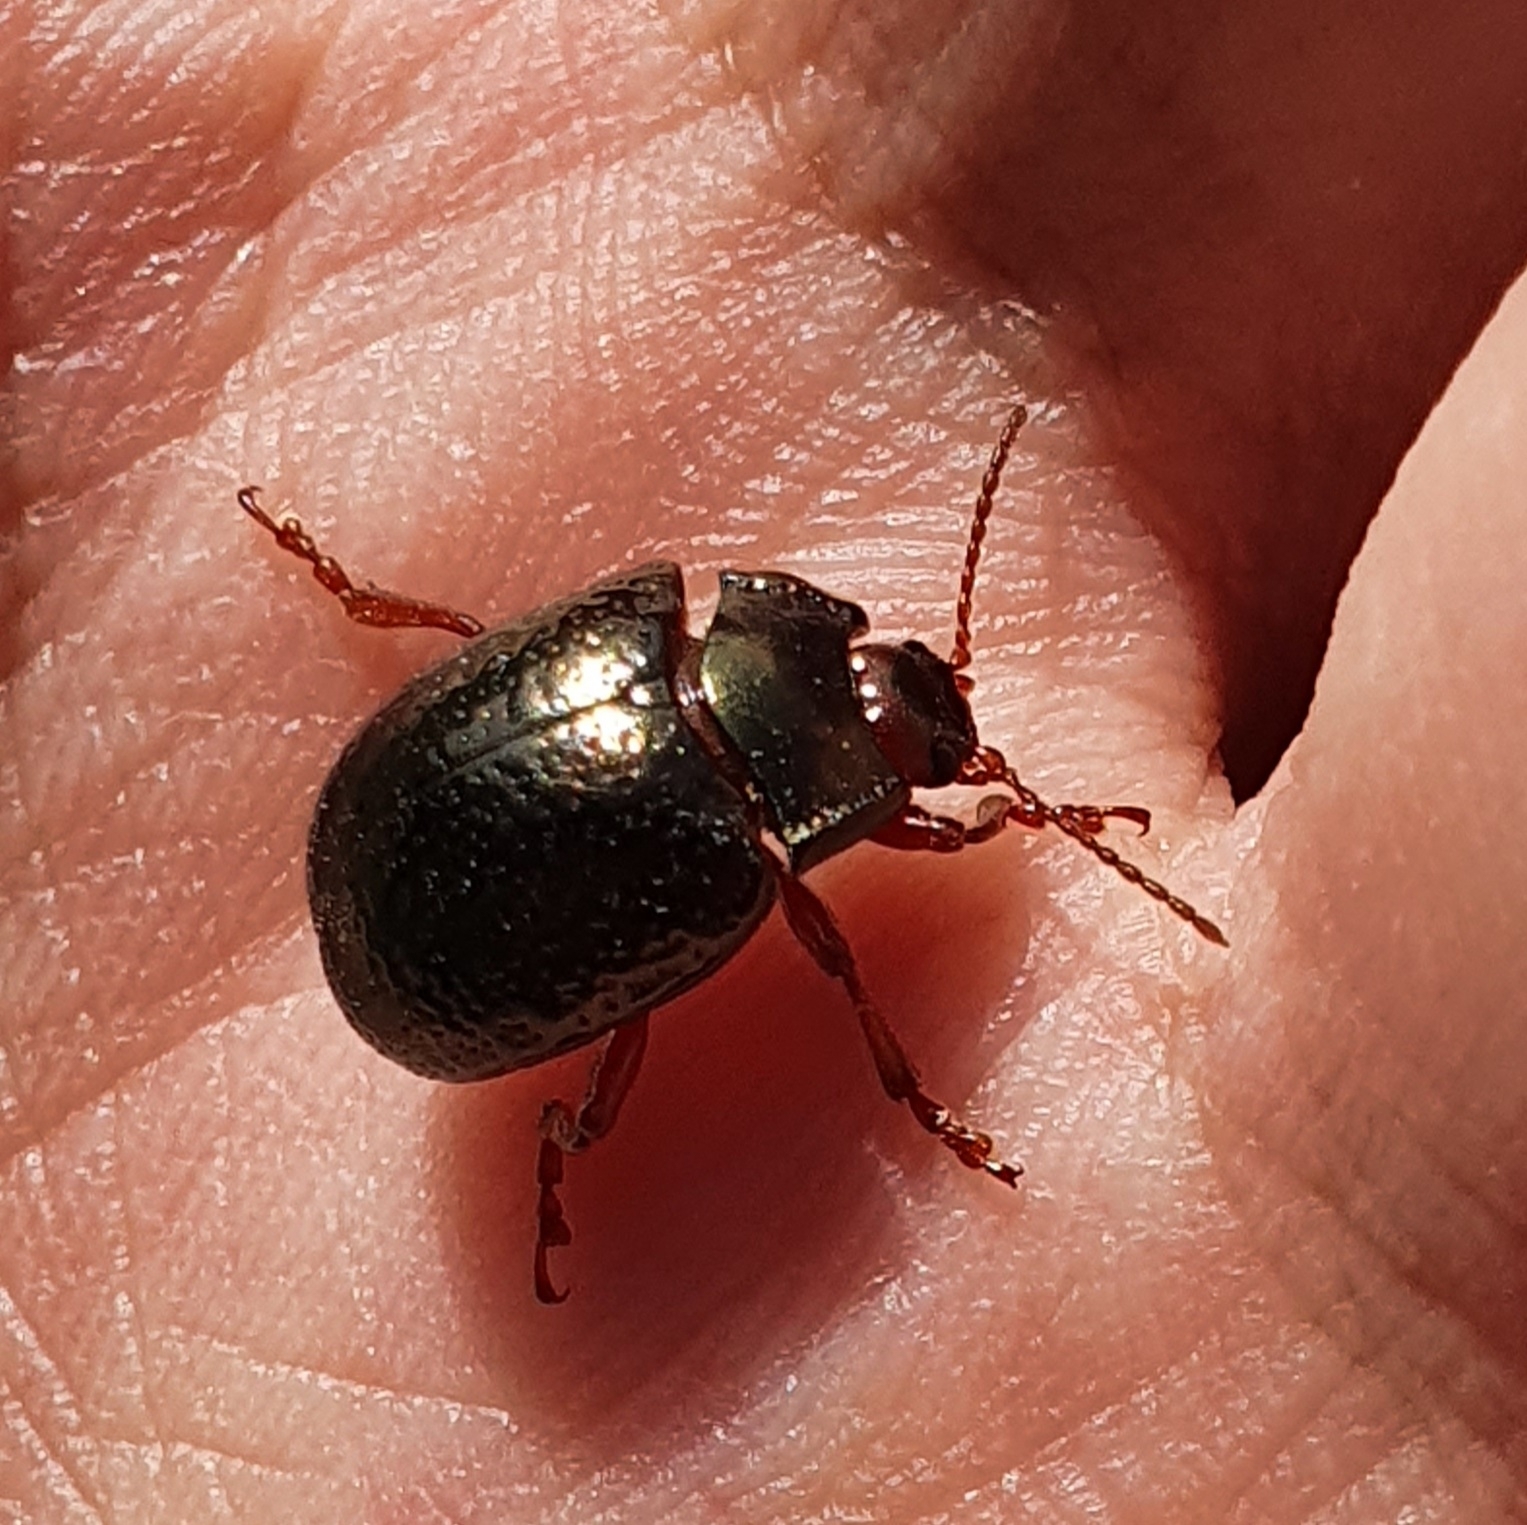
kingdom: Animalia
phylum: Arthropoda
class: Insecta
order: Coleoptera
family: Chrysomelidae
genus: Chrysolina
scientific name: Chrysolina bankii
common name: Leaf beetle
